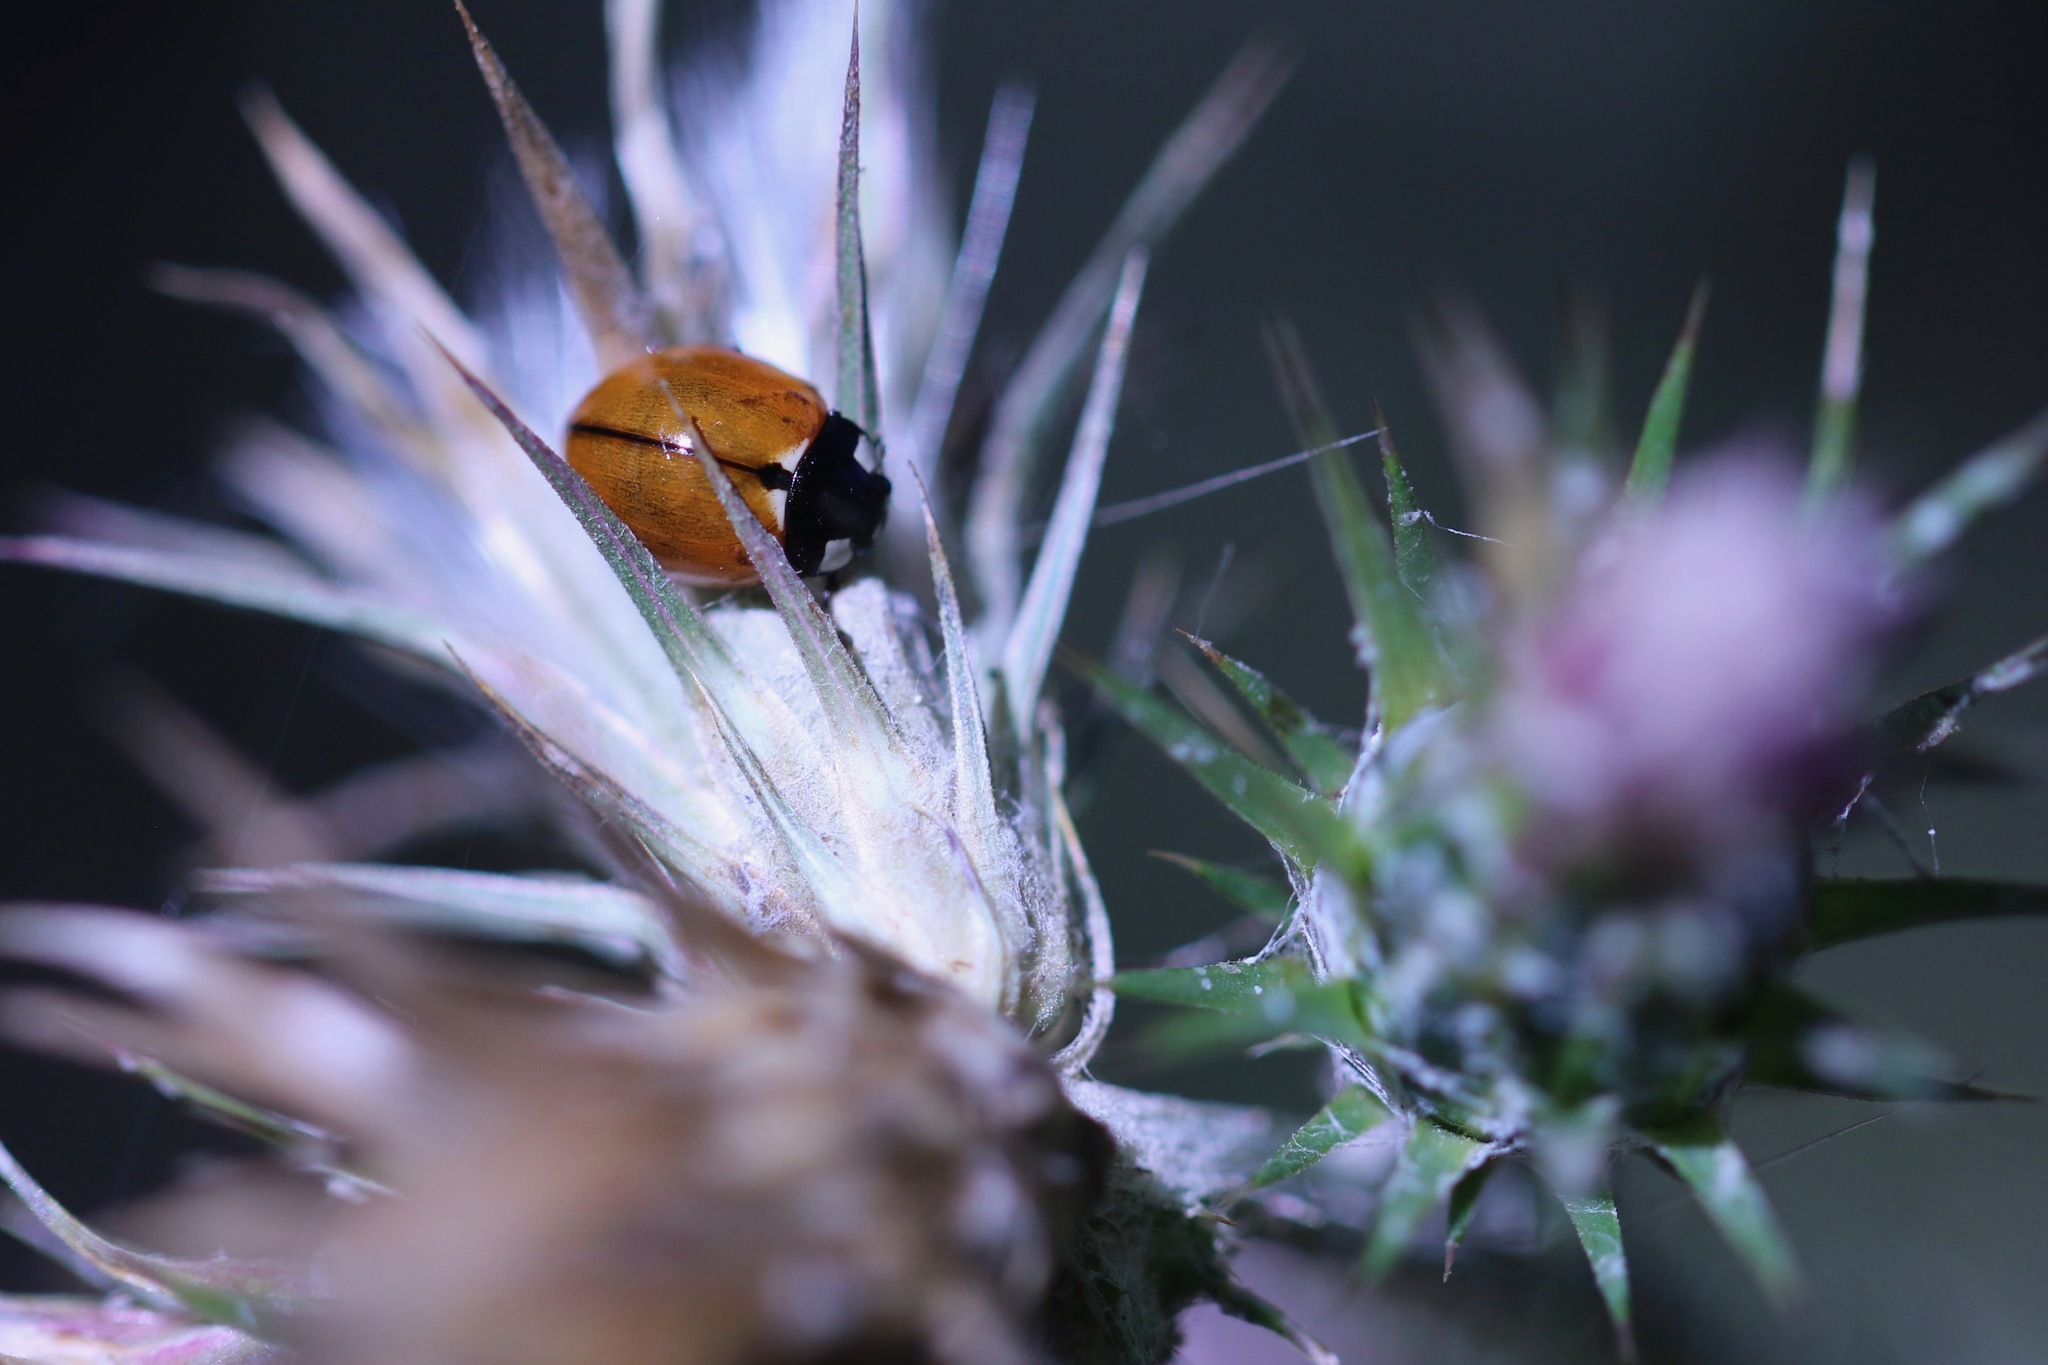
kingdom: Animalia
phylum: Arthropoda
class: Insecta
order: Coleoptera
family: Coccinellidae
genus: Coccinella
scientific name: Coccinella californica
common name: Lady beetle
